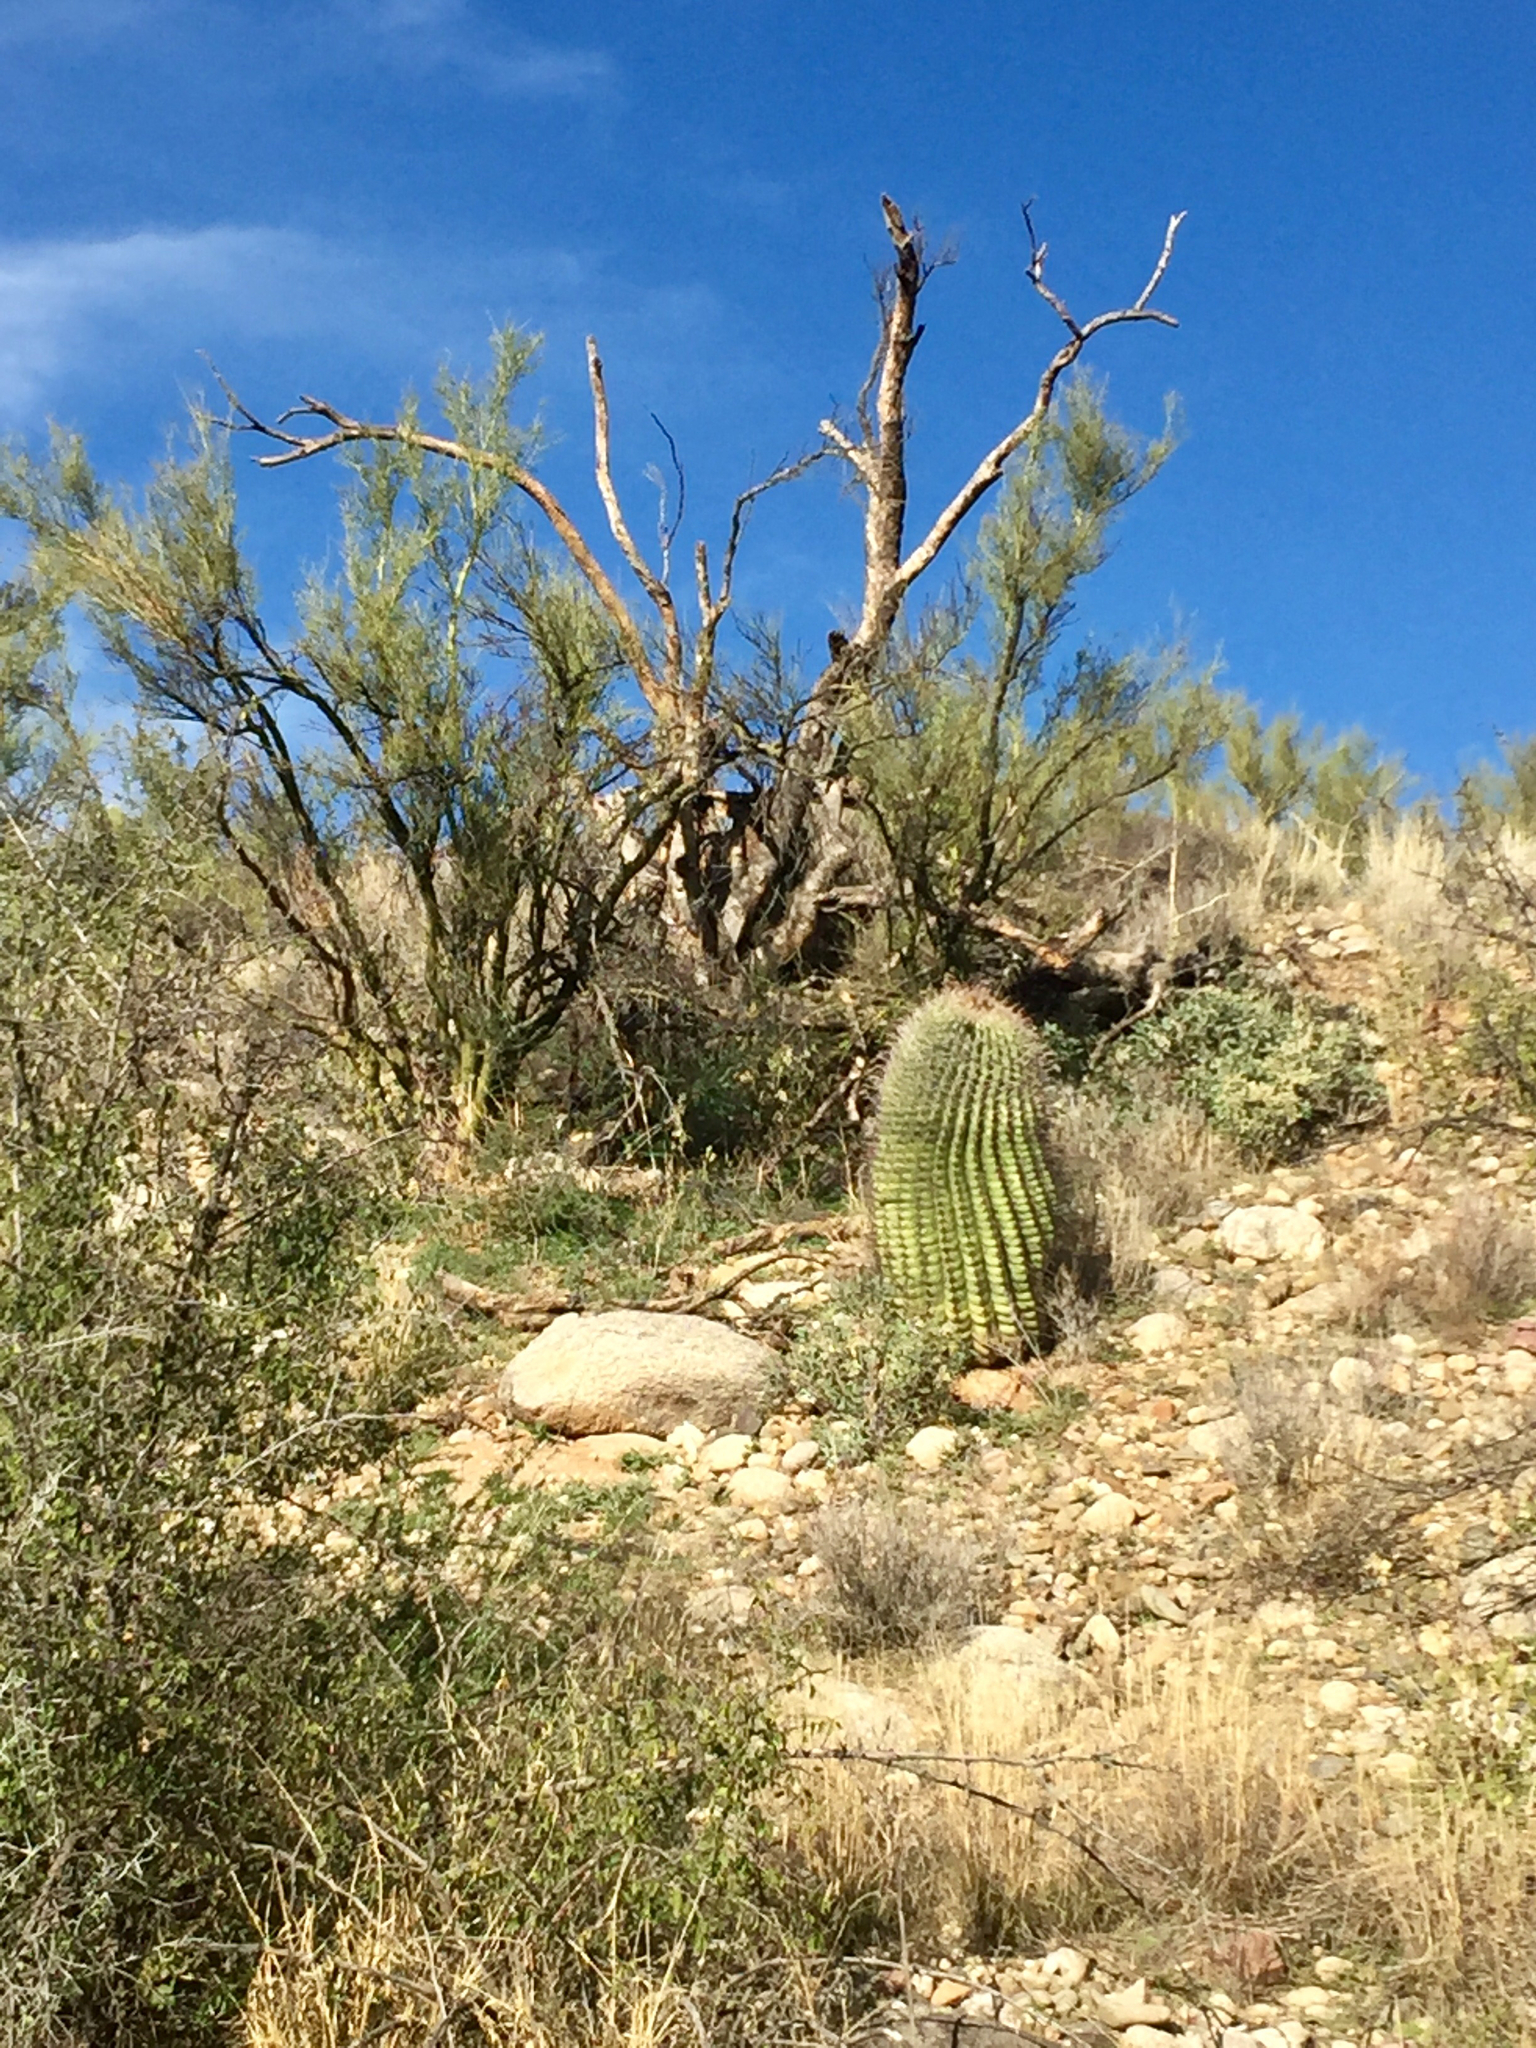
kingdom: Plantae
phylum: Tracheophyta
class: Magnoliopsida
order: Caryophyllales
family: Cactaceae
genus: Ferocactus
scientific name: Ferocactus wislizeni
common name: Candy barrel cactus
